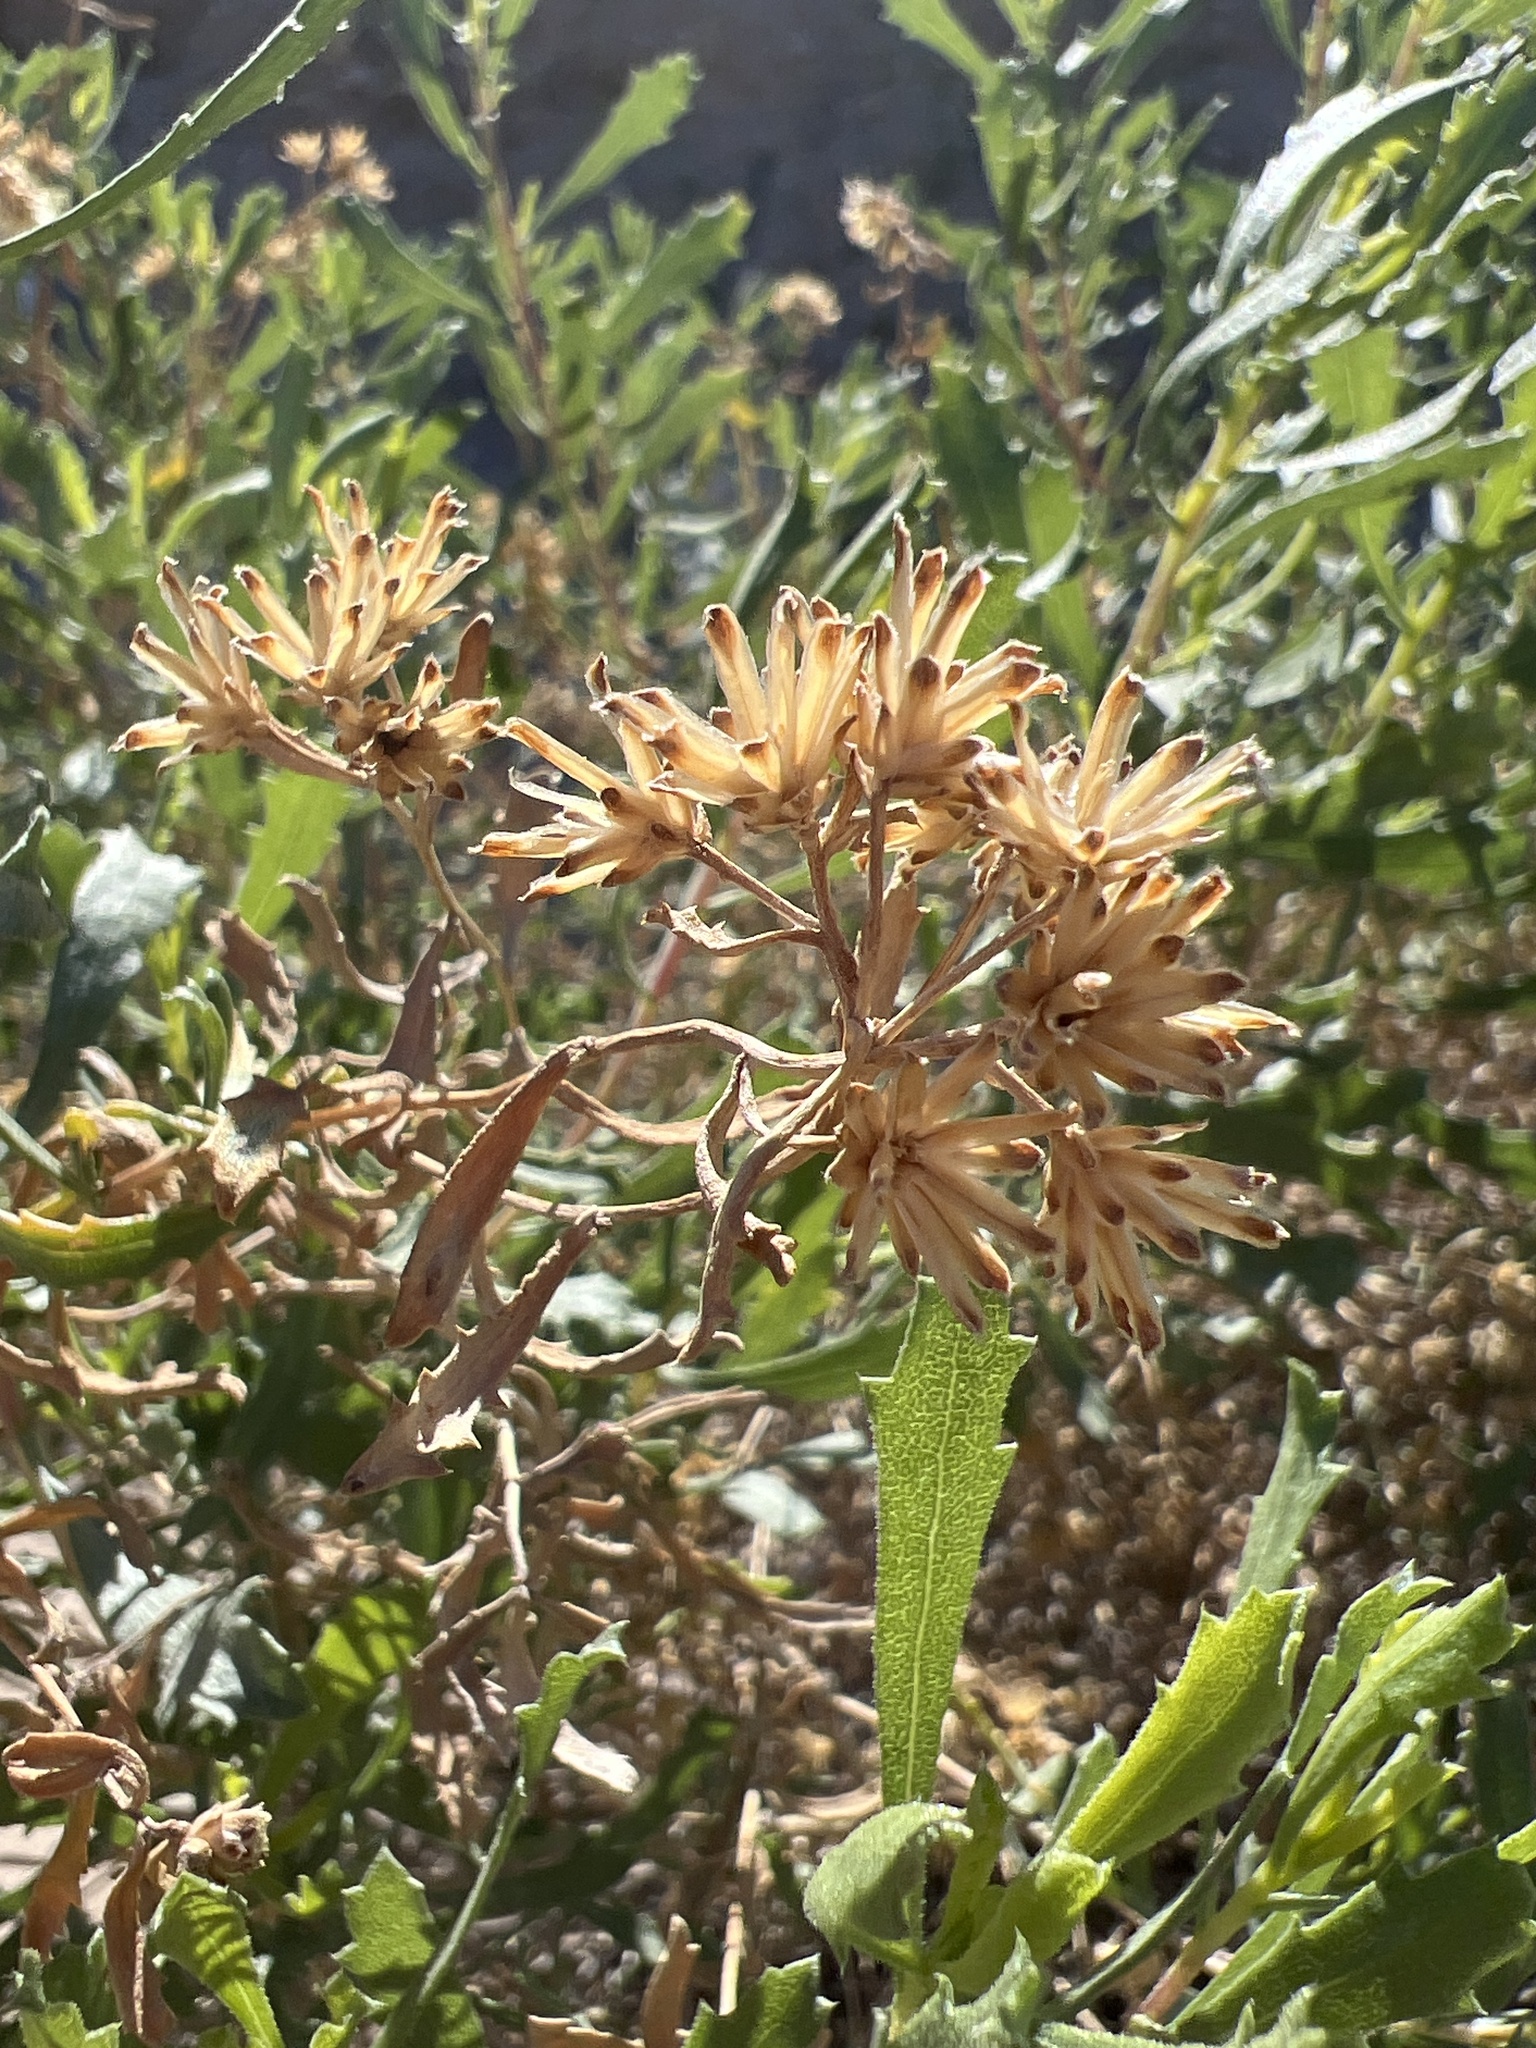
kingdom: Plantae
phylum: Tracheophyta
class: Magnoliopsida
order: Asterales
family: Asteraceae
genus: Isocoma
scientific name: Isocoma acradenia
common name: Alkali jimmyweed
